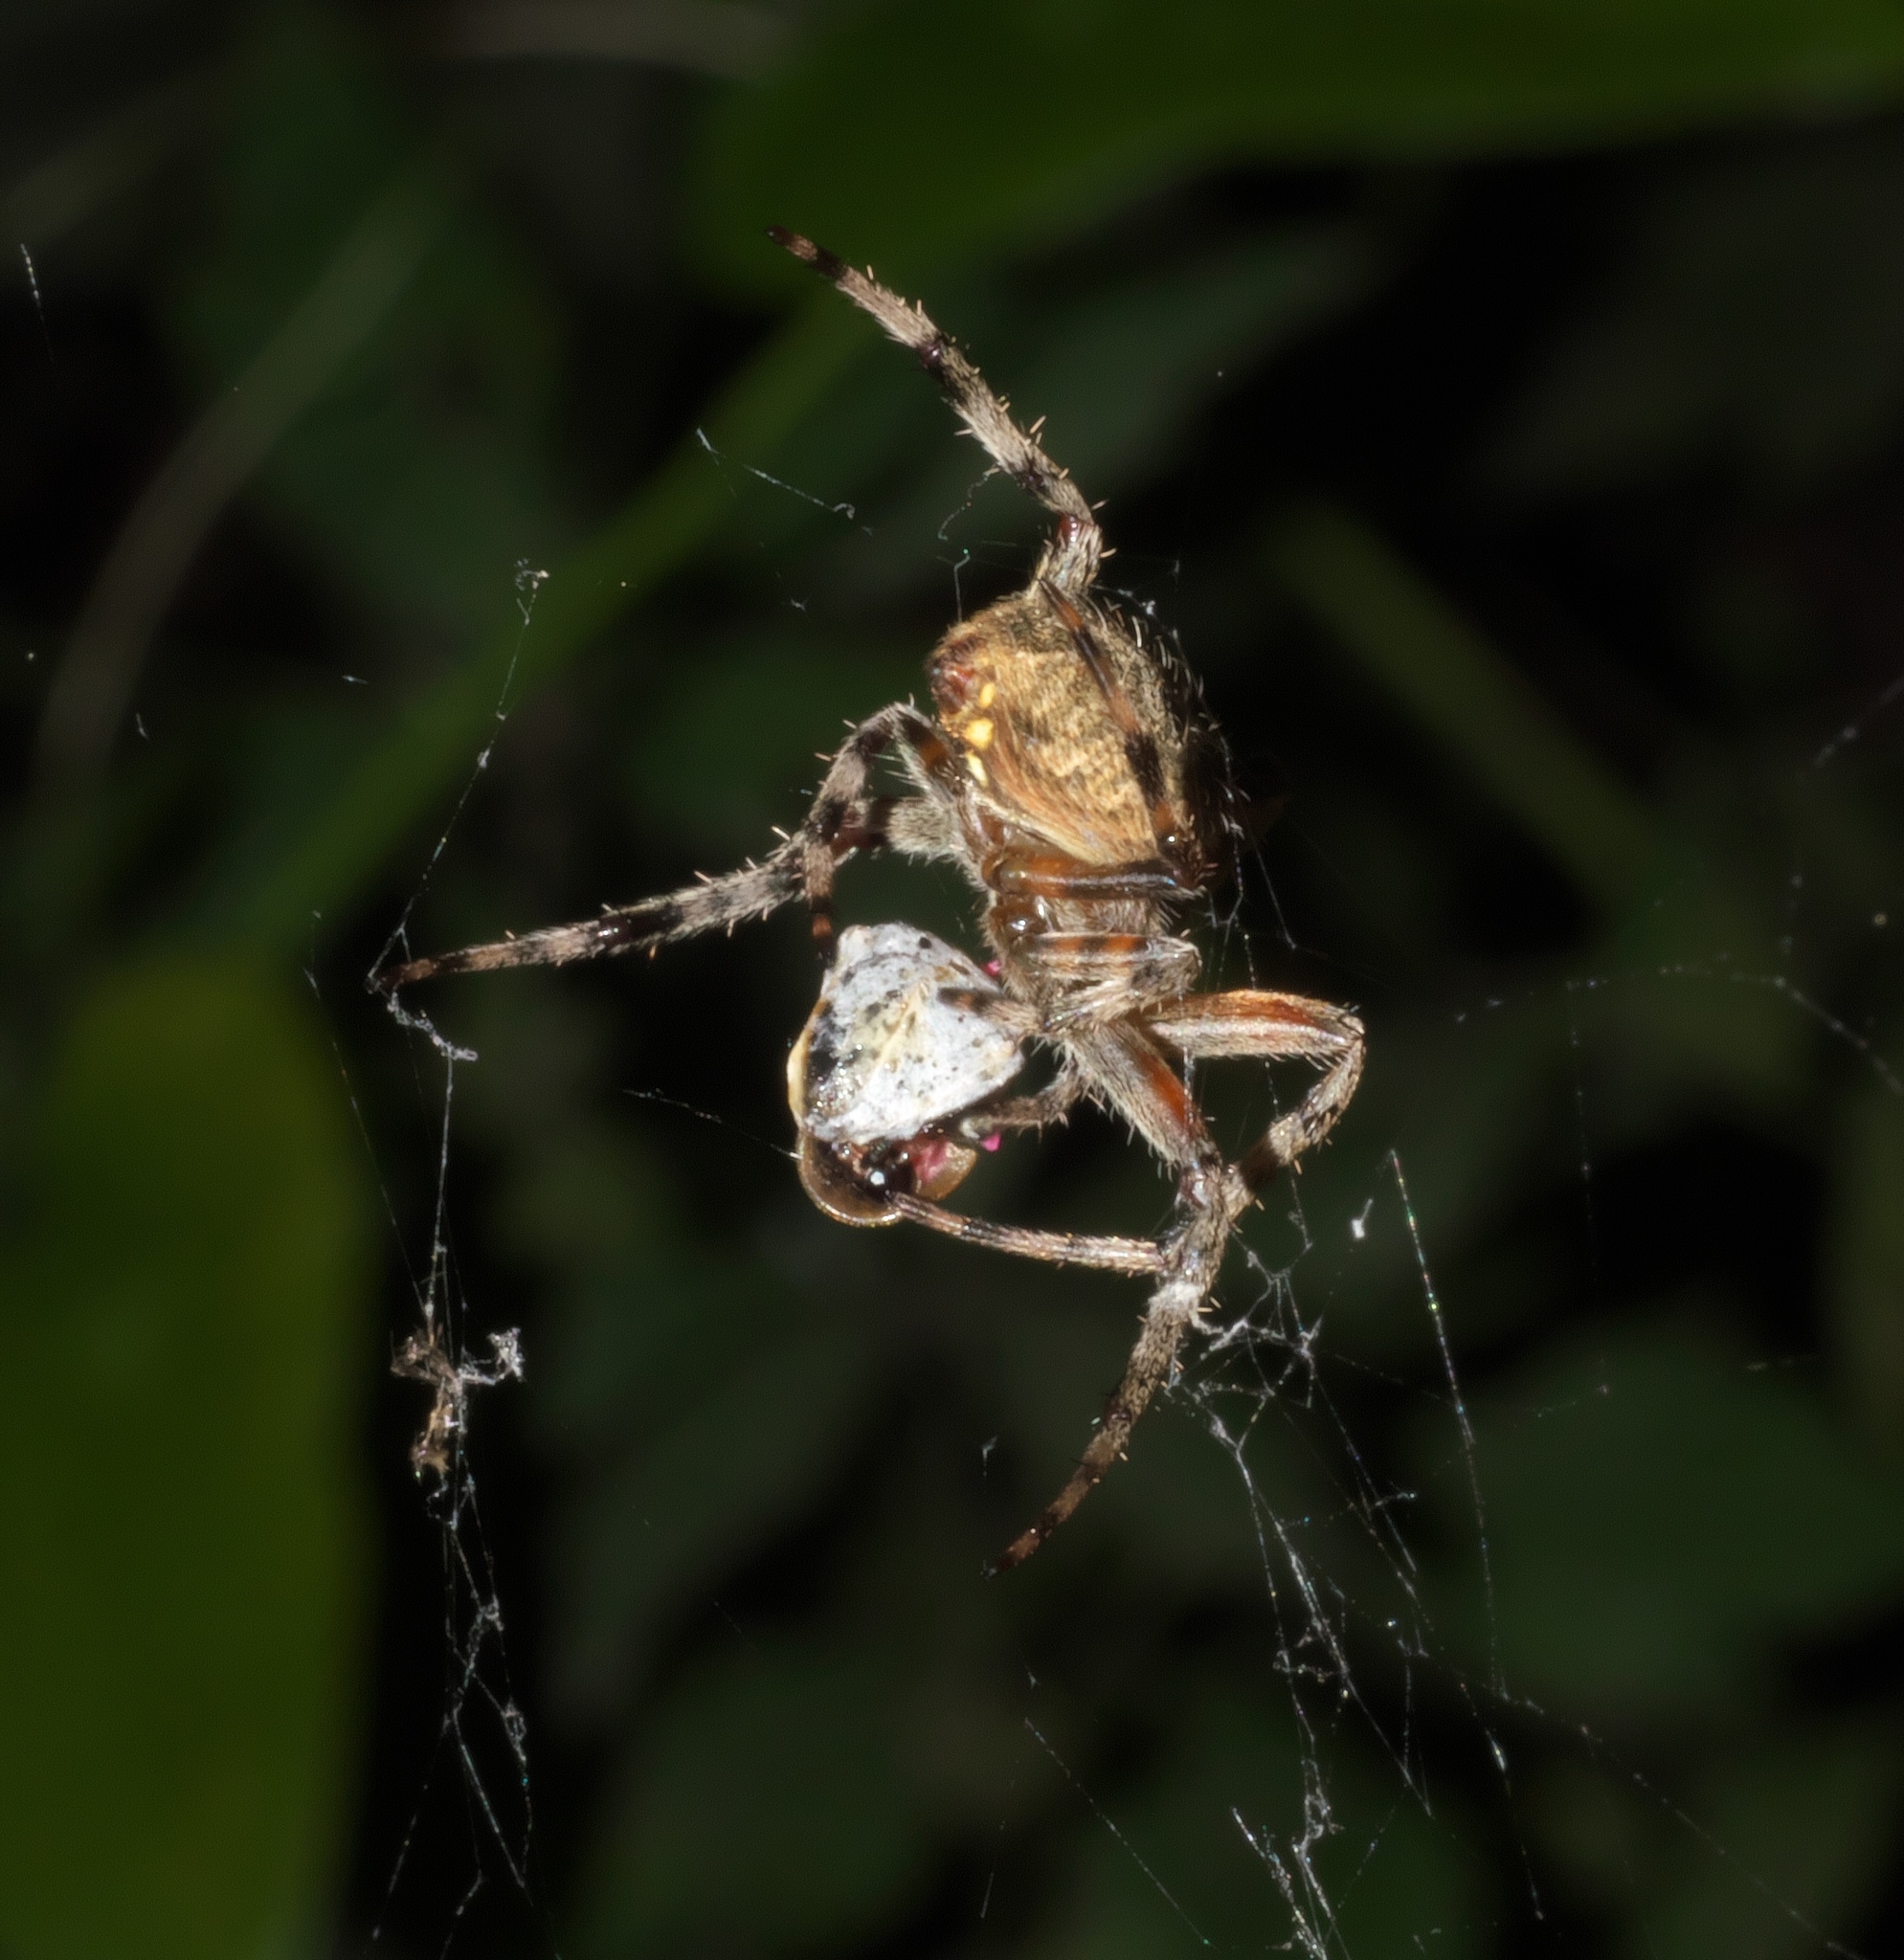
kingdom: Animalia
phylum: Arthropoda
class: Arachnida
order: Araneae
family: Araneidae
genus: Neoscona
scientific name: Neoscona crucifera
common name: Spotted orbweaver
